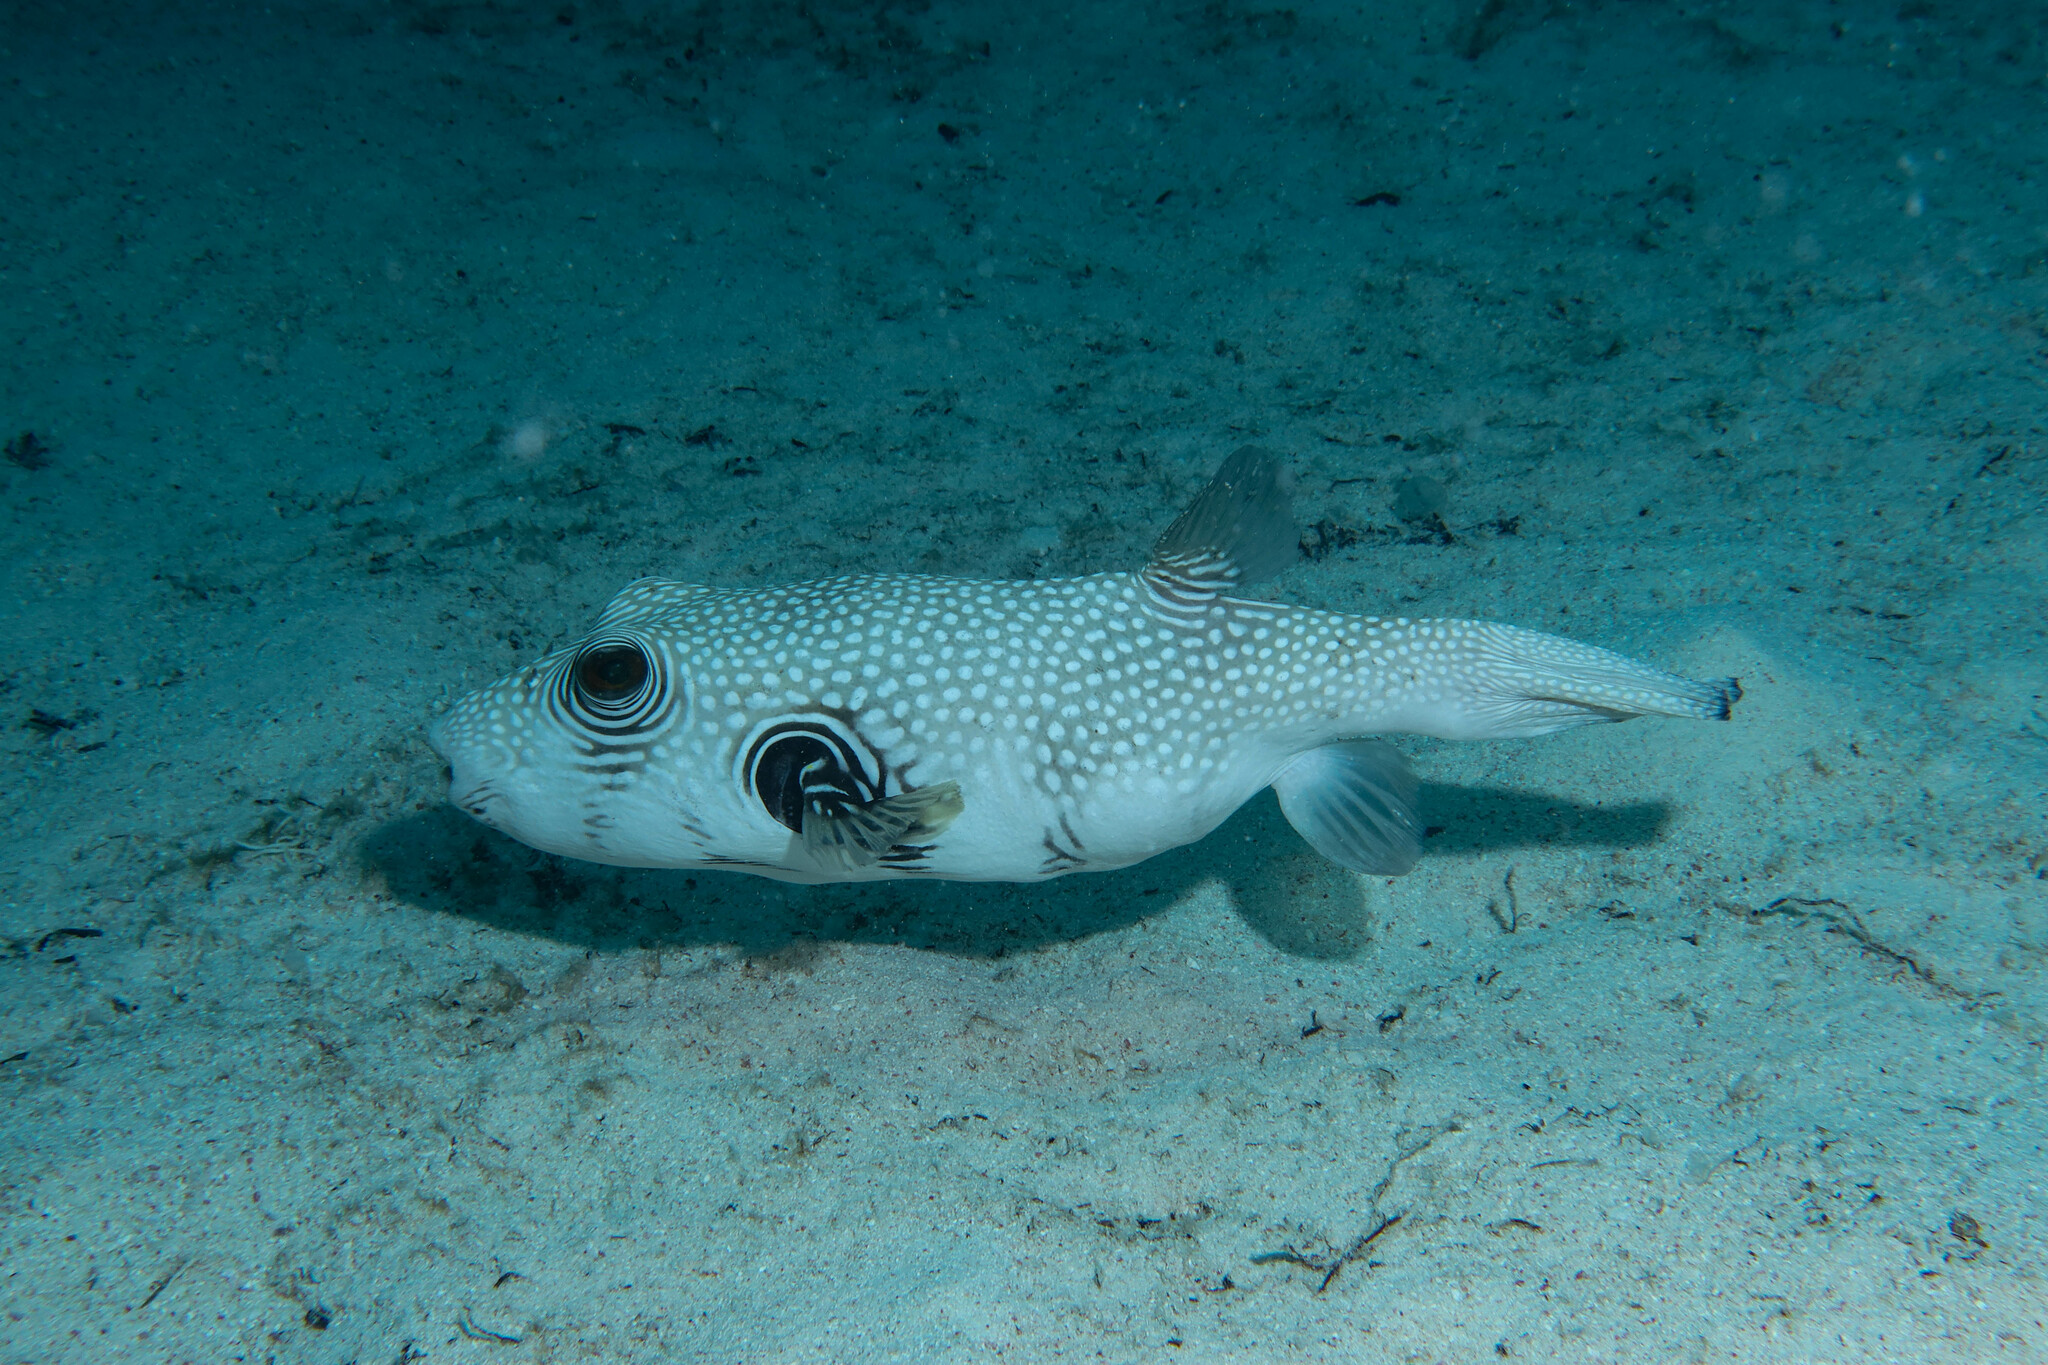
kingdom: Animalia
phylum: Chordata
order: Tetraodontiformes
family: Tetraodontidae
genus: Arothron
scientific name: Arothron hispidus
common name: Stripebelly puffer
